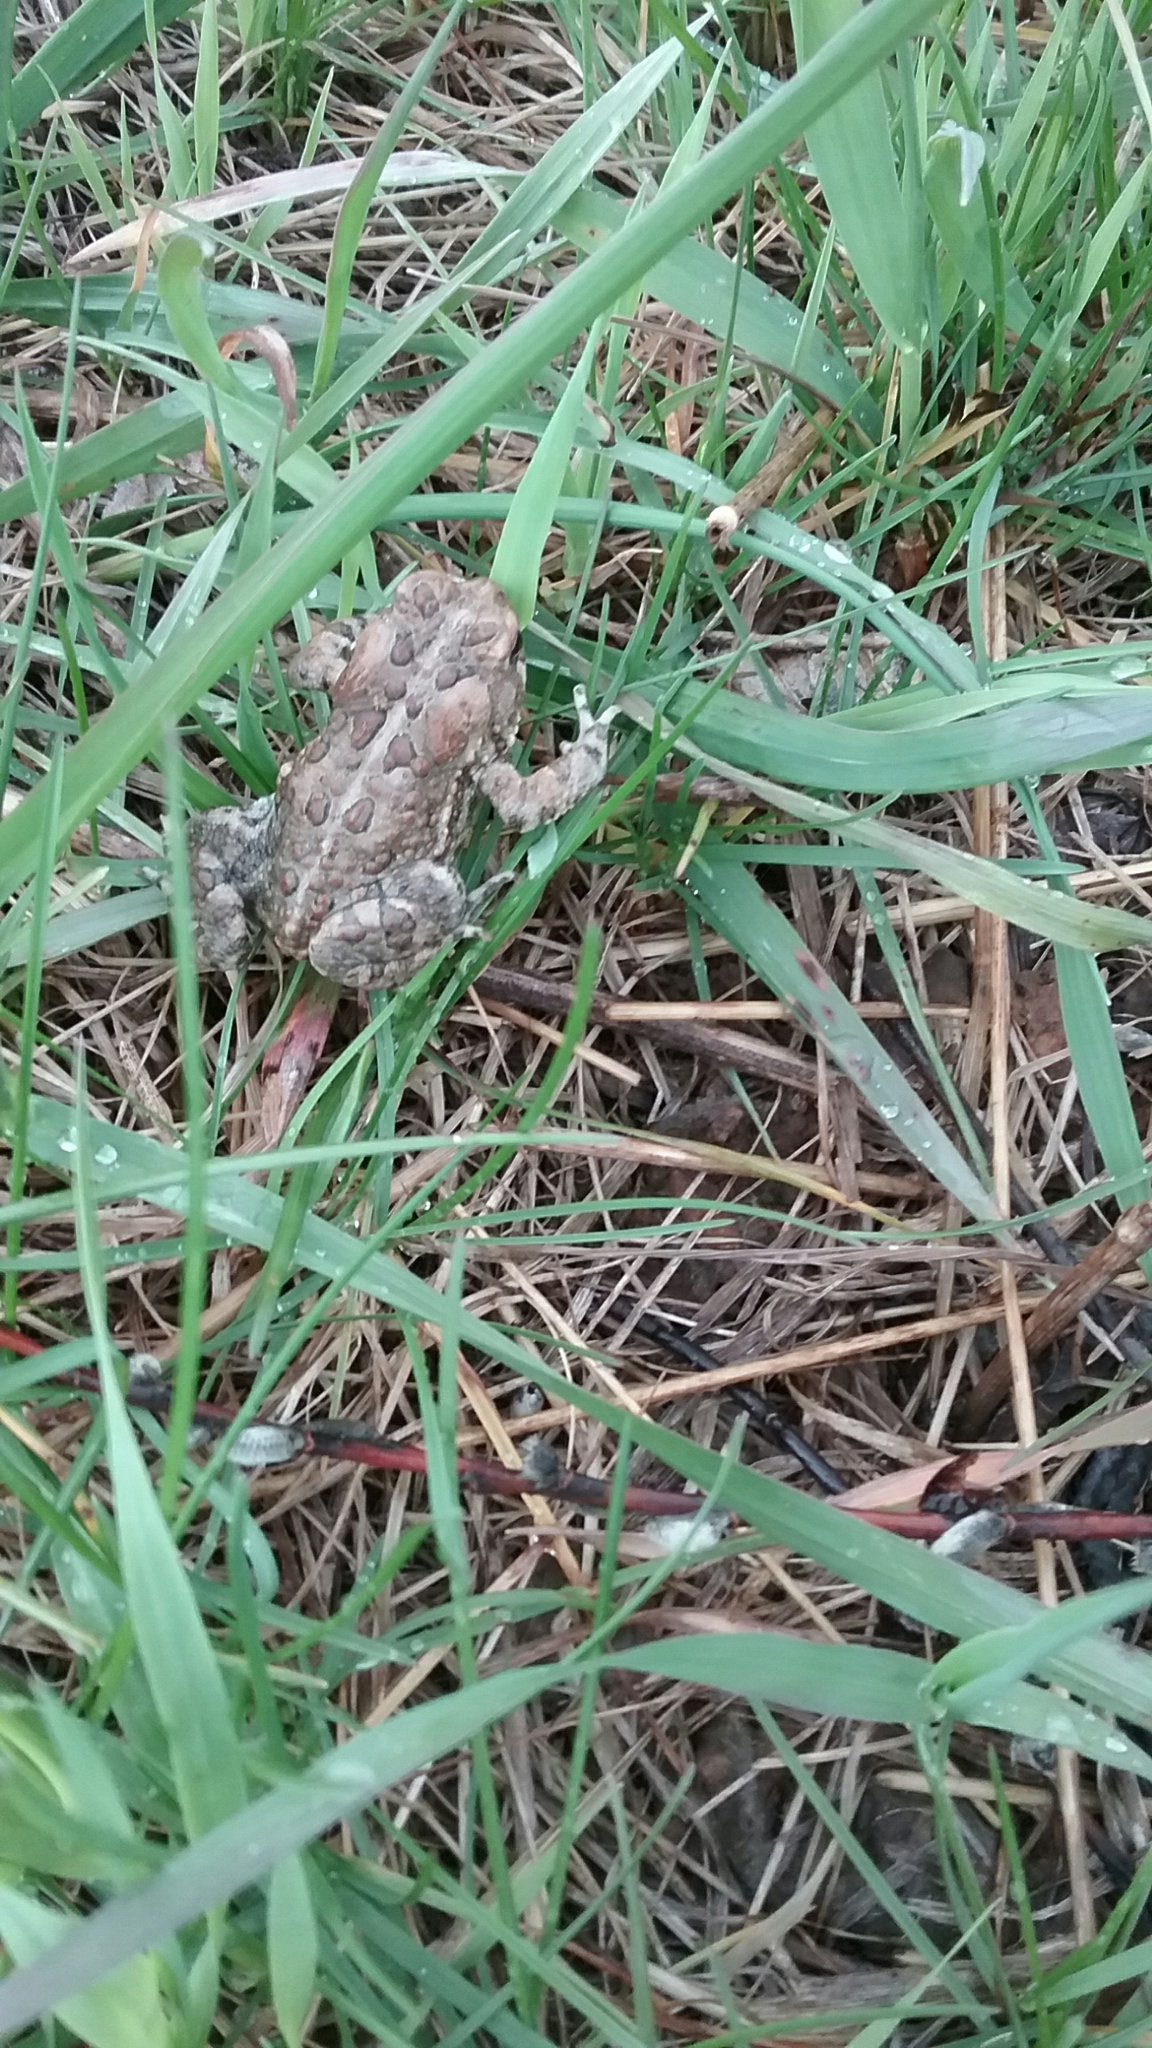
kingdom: Animalia
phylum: Chordata
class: Amphibia
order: Anura
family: Bufonidae
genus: Anaxyrus
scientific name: Anaxyrus americanus
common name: American toad
